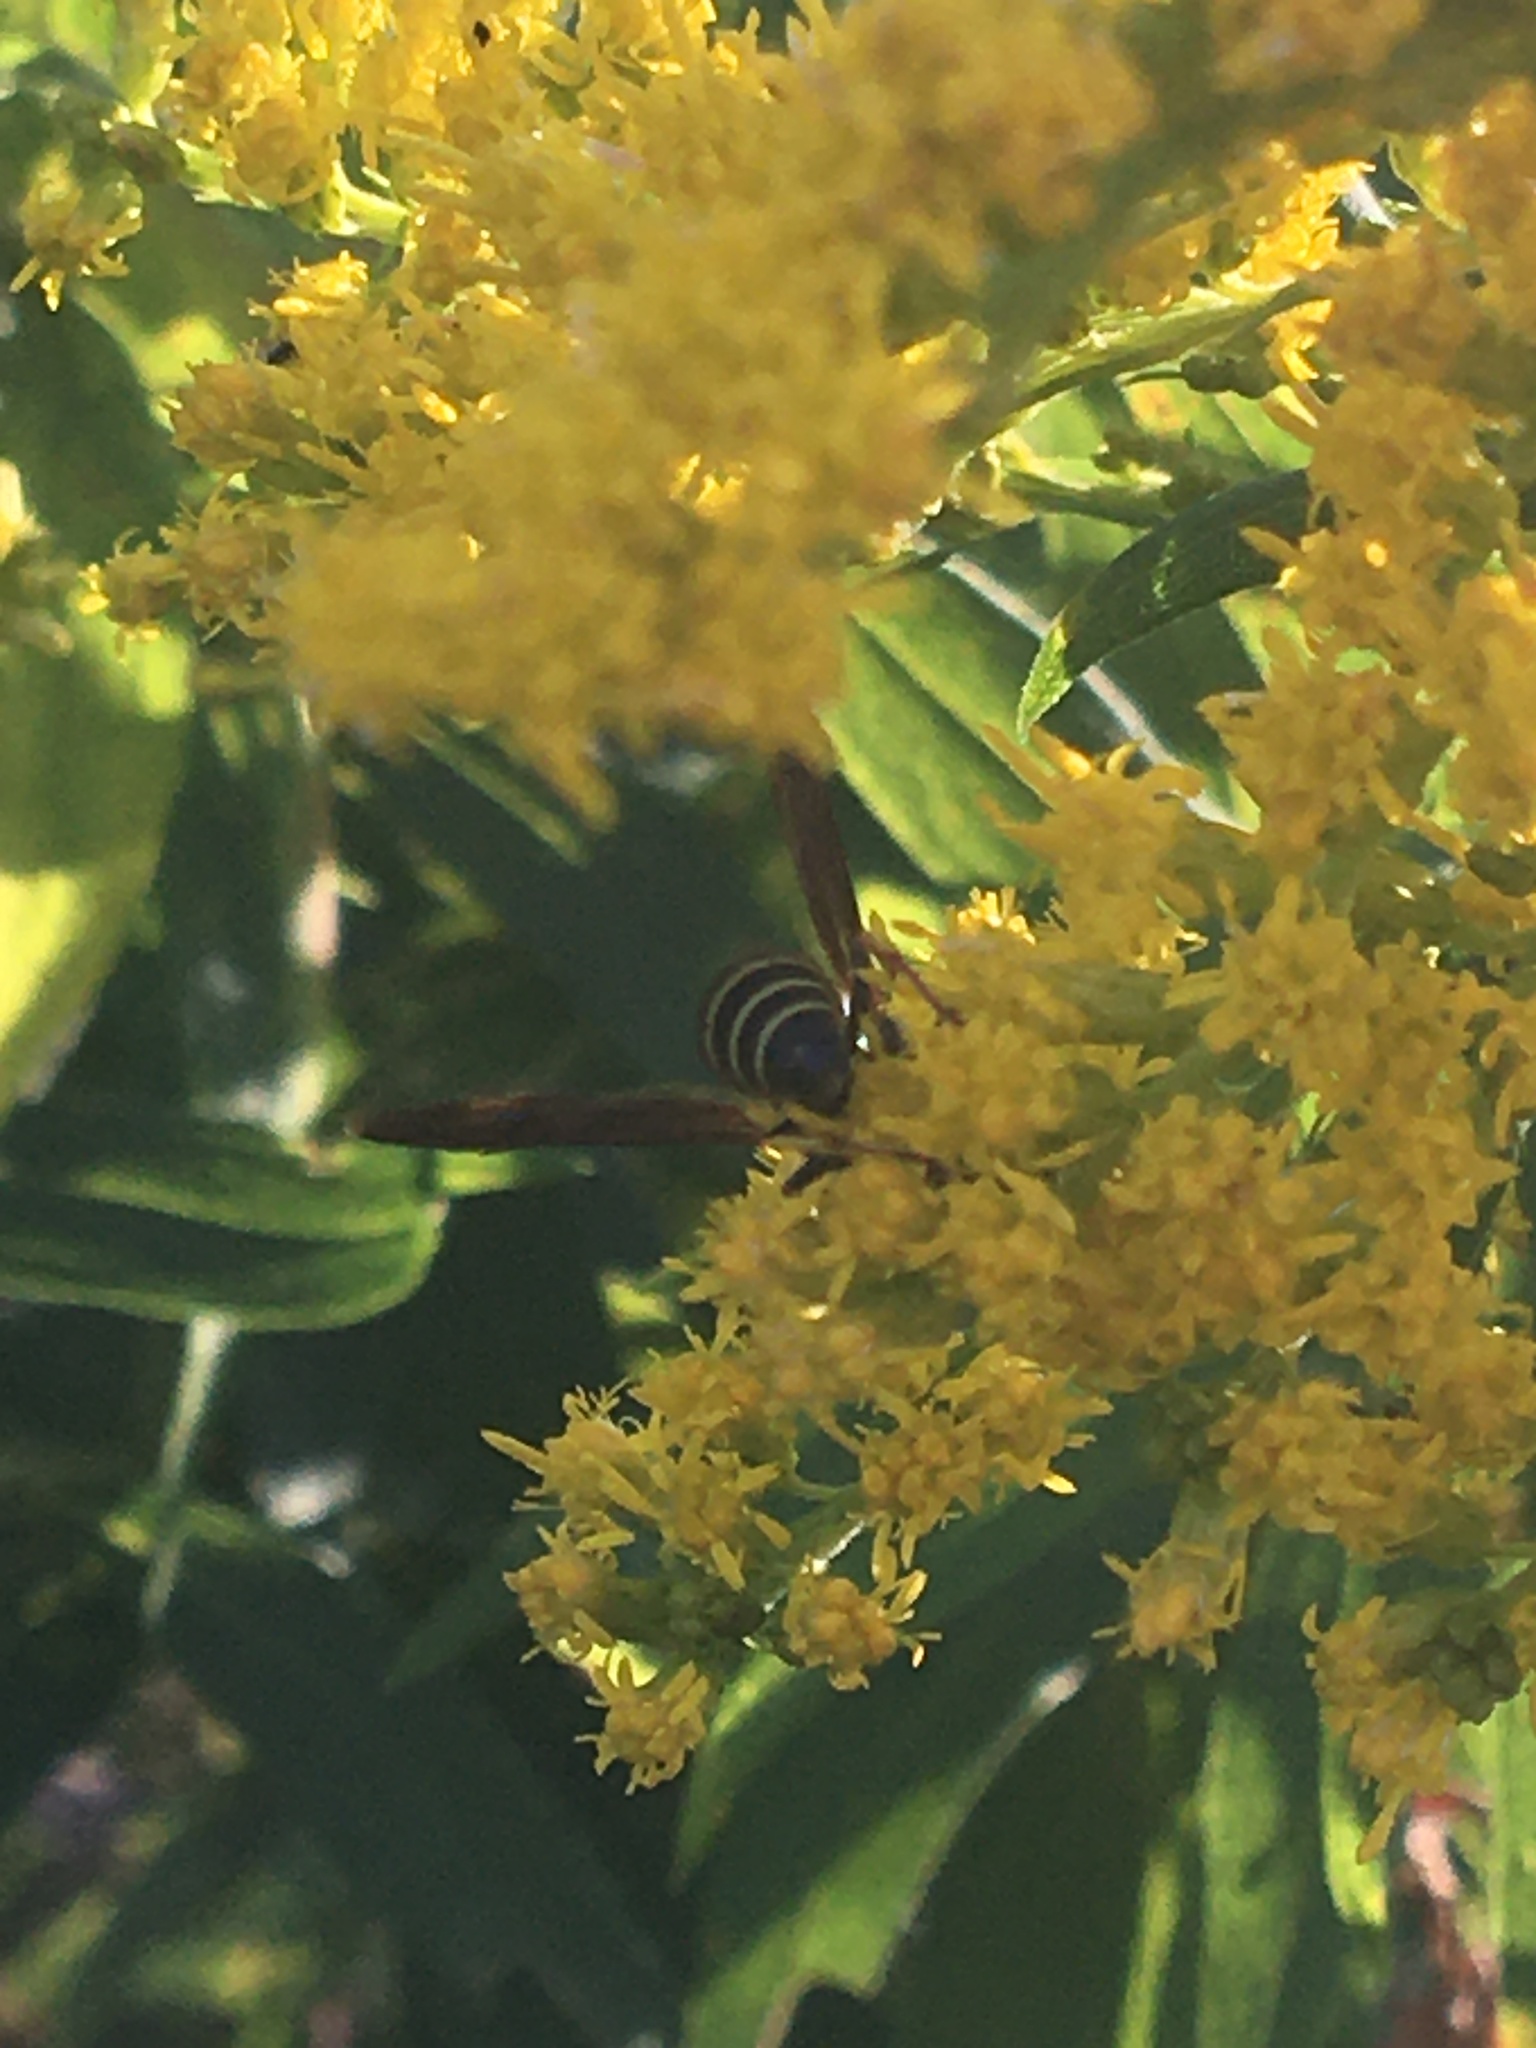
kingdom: Animalia
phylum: Arthropoda
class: Insecta
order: Hymenoptera
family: Eumenidae
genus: Euodynerus
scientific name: Euodynerus foraminatus
